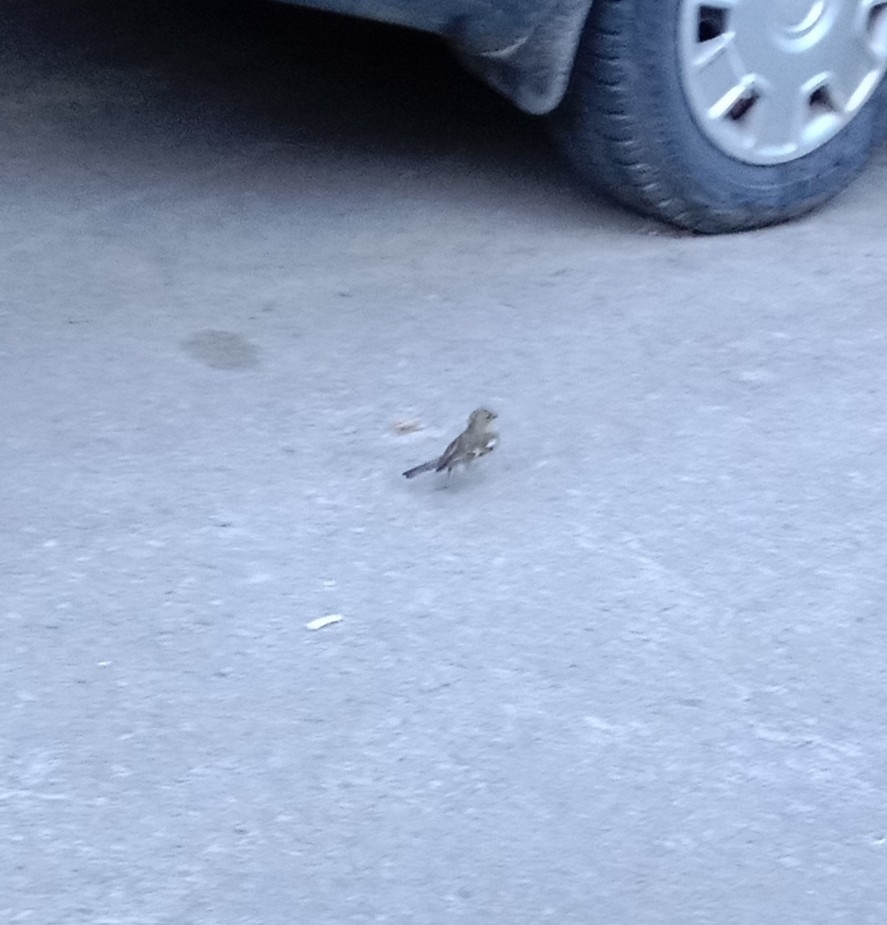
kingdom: Animalia
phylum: Chordata
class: Aves
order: Passeriformes
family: Fringillidae
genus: Fringilla
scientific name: Fringilla coelebs
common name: Common chaffinch
